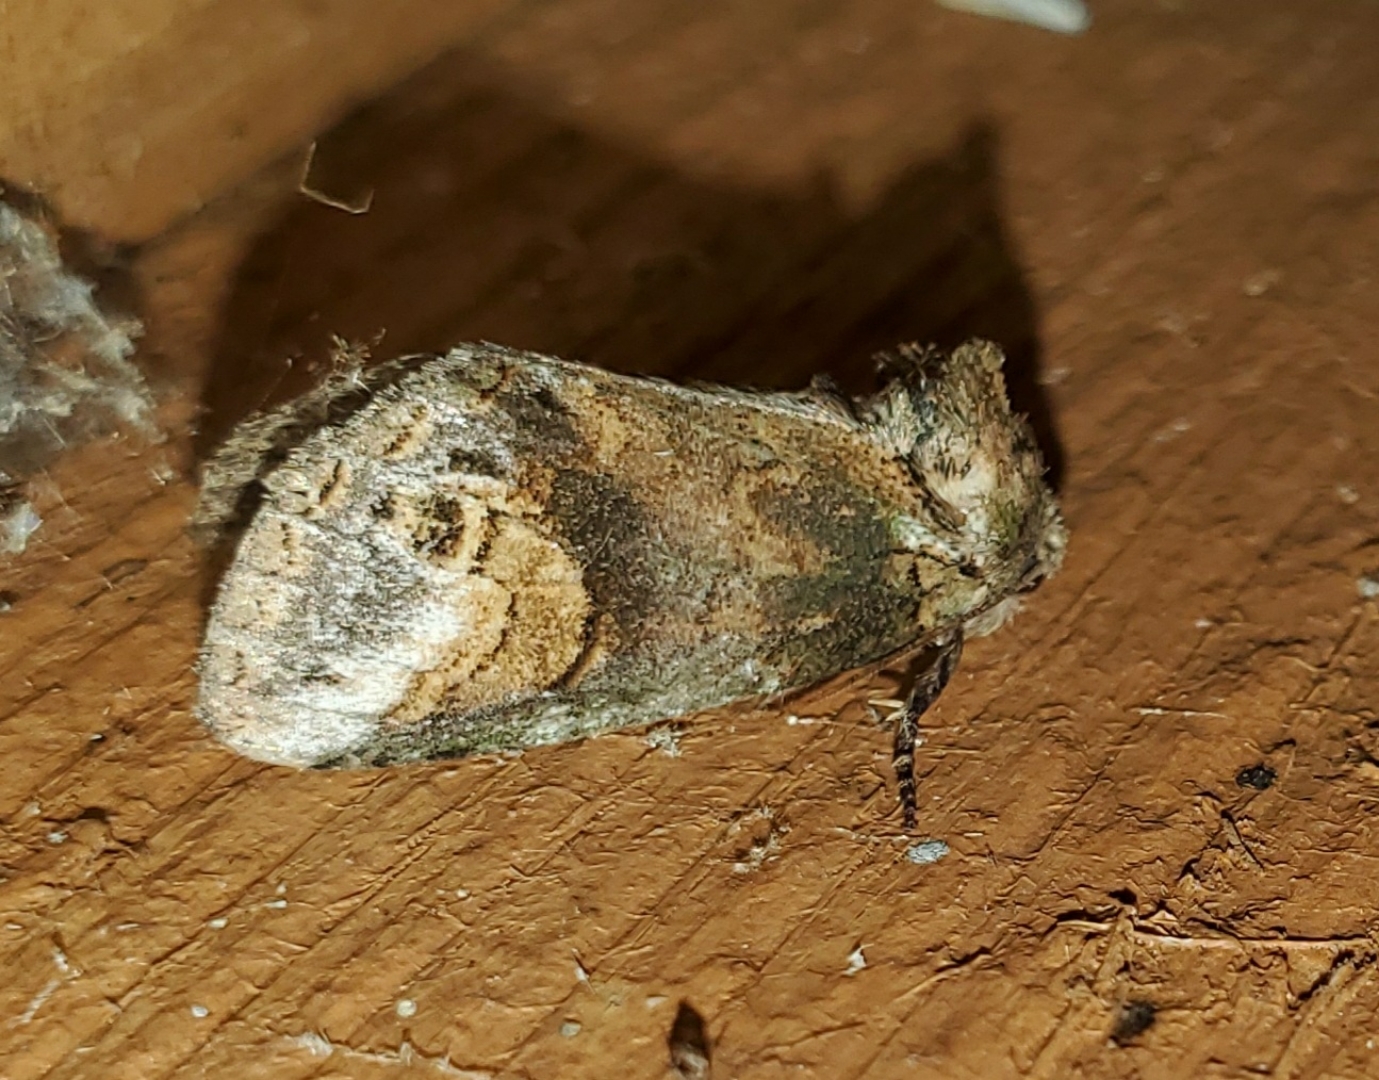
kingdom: Animalia
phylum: Arthropoda
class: Insecta
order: Lepidoptera
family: Notodontidae
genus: Rifargia
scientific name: Rifargia
